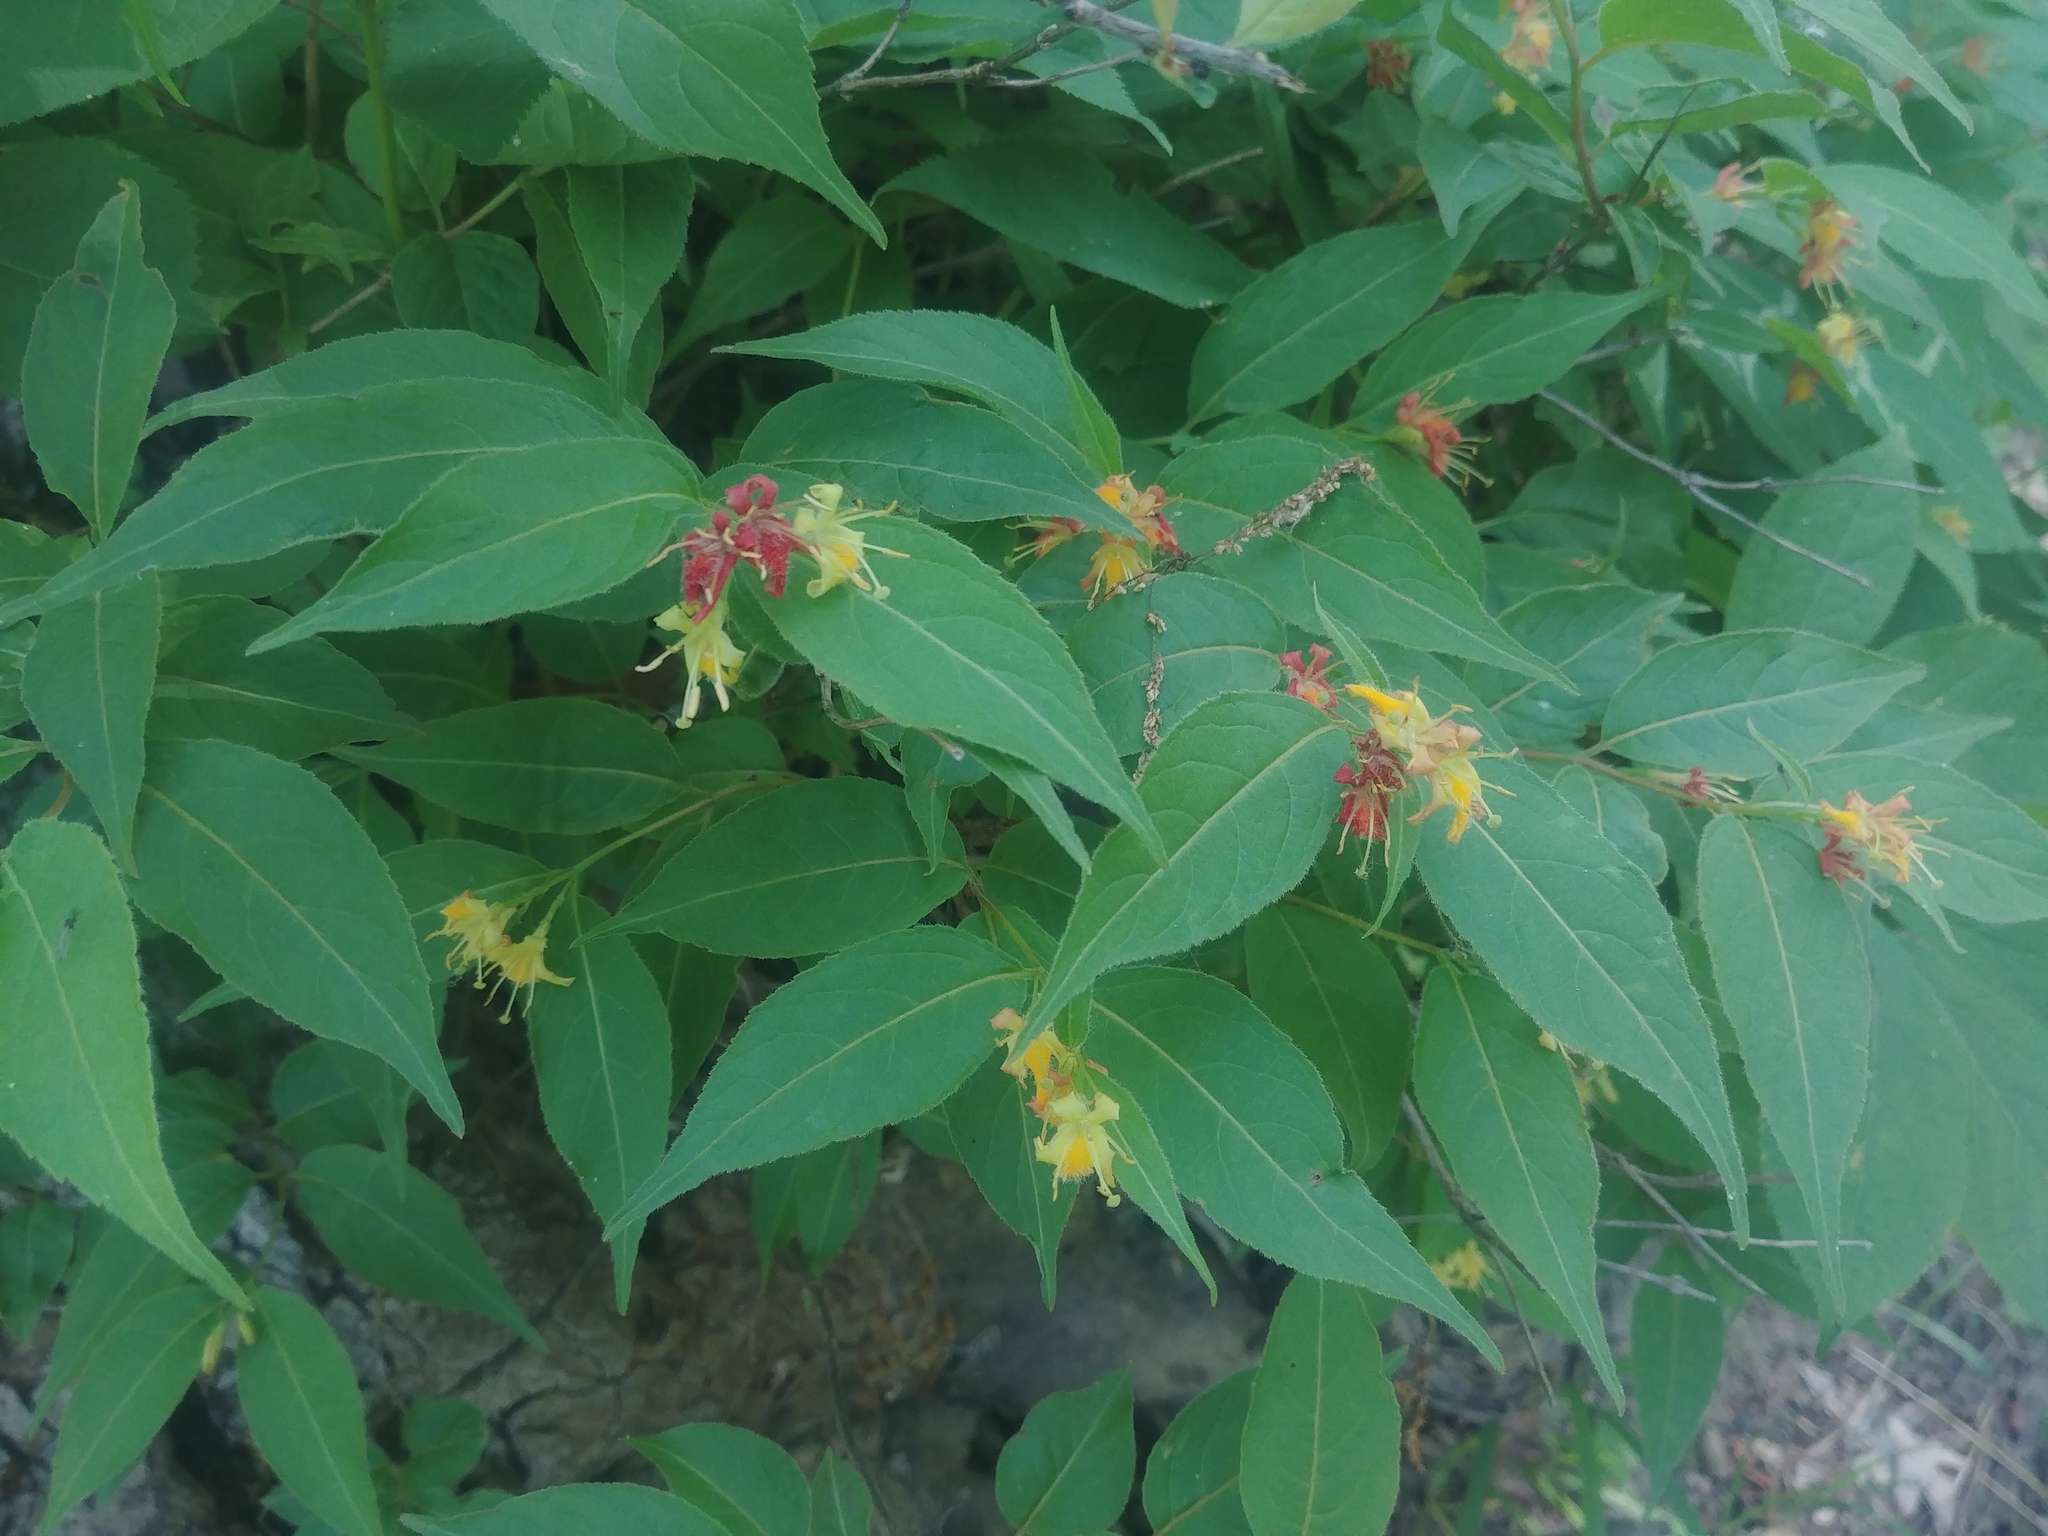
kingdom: Plantae
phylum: Tracheophyta
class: Magnoliopsida
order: Dipsacales
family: Caprifoliaceae
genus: Diervilla
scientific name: Diervilla lonicera
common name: Bush-honeysuckle
